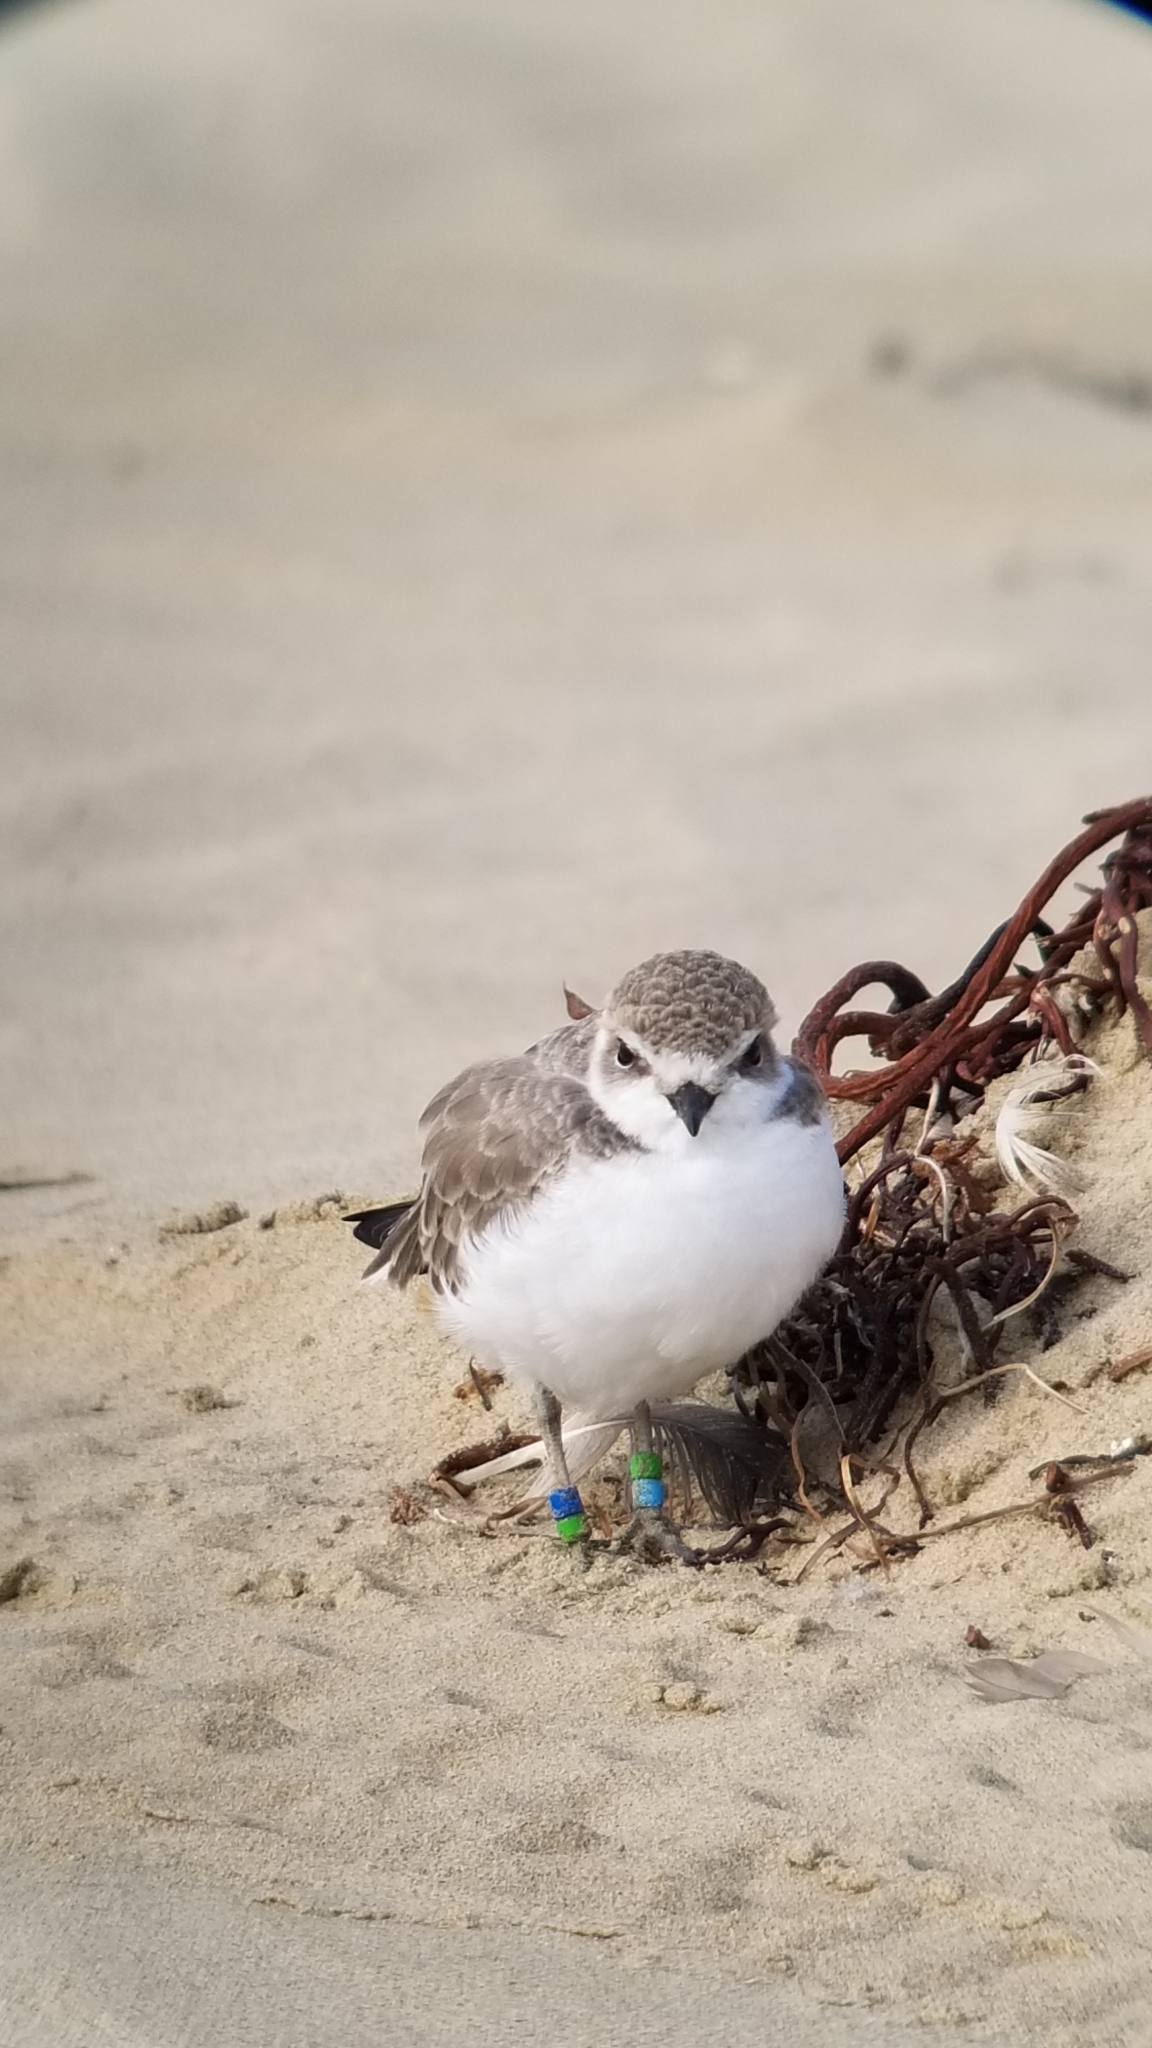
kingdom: Animalia
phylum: Chordata
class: Aves
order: Charadriiformes
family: Charadriidae
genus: Anarhynchus
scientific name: Anarhynchus
